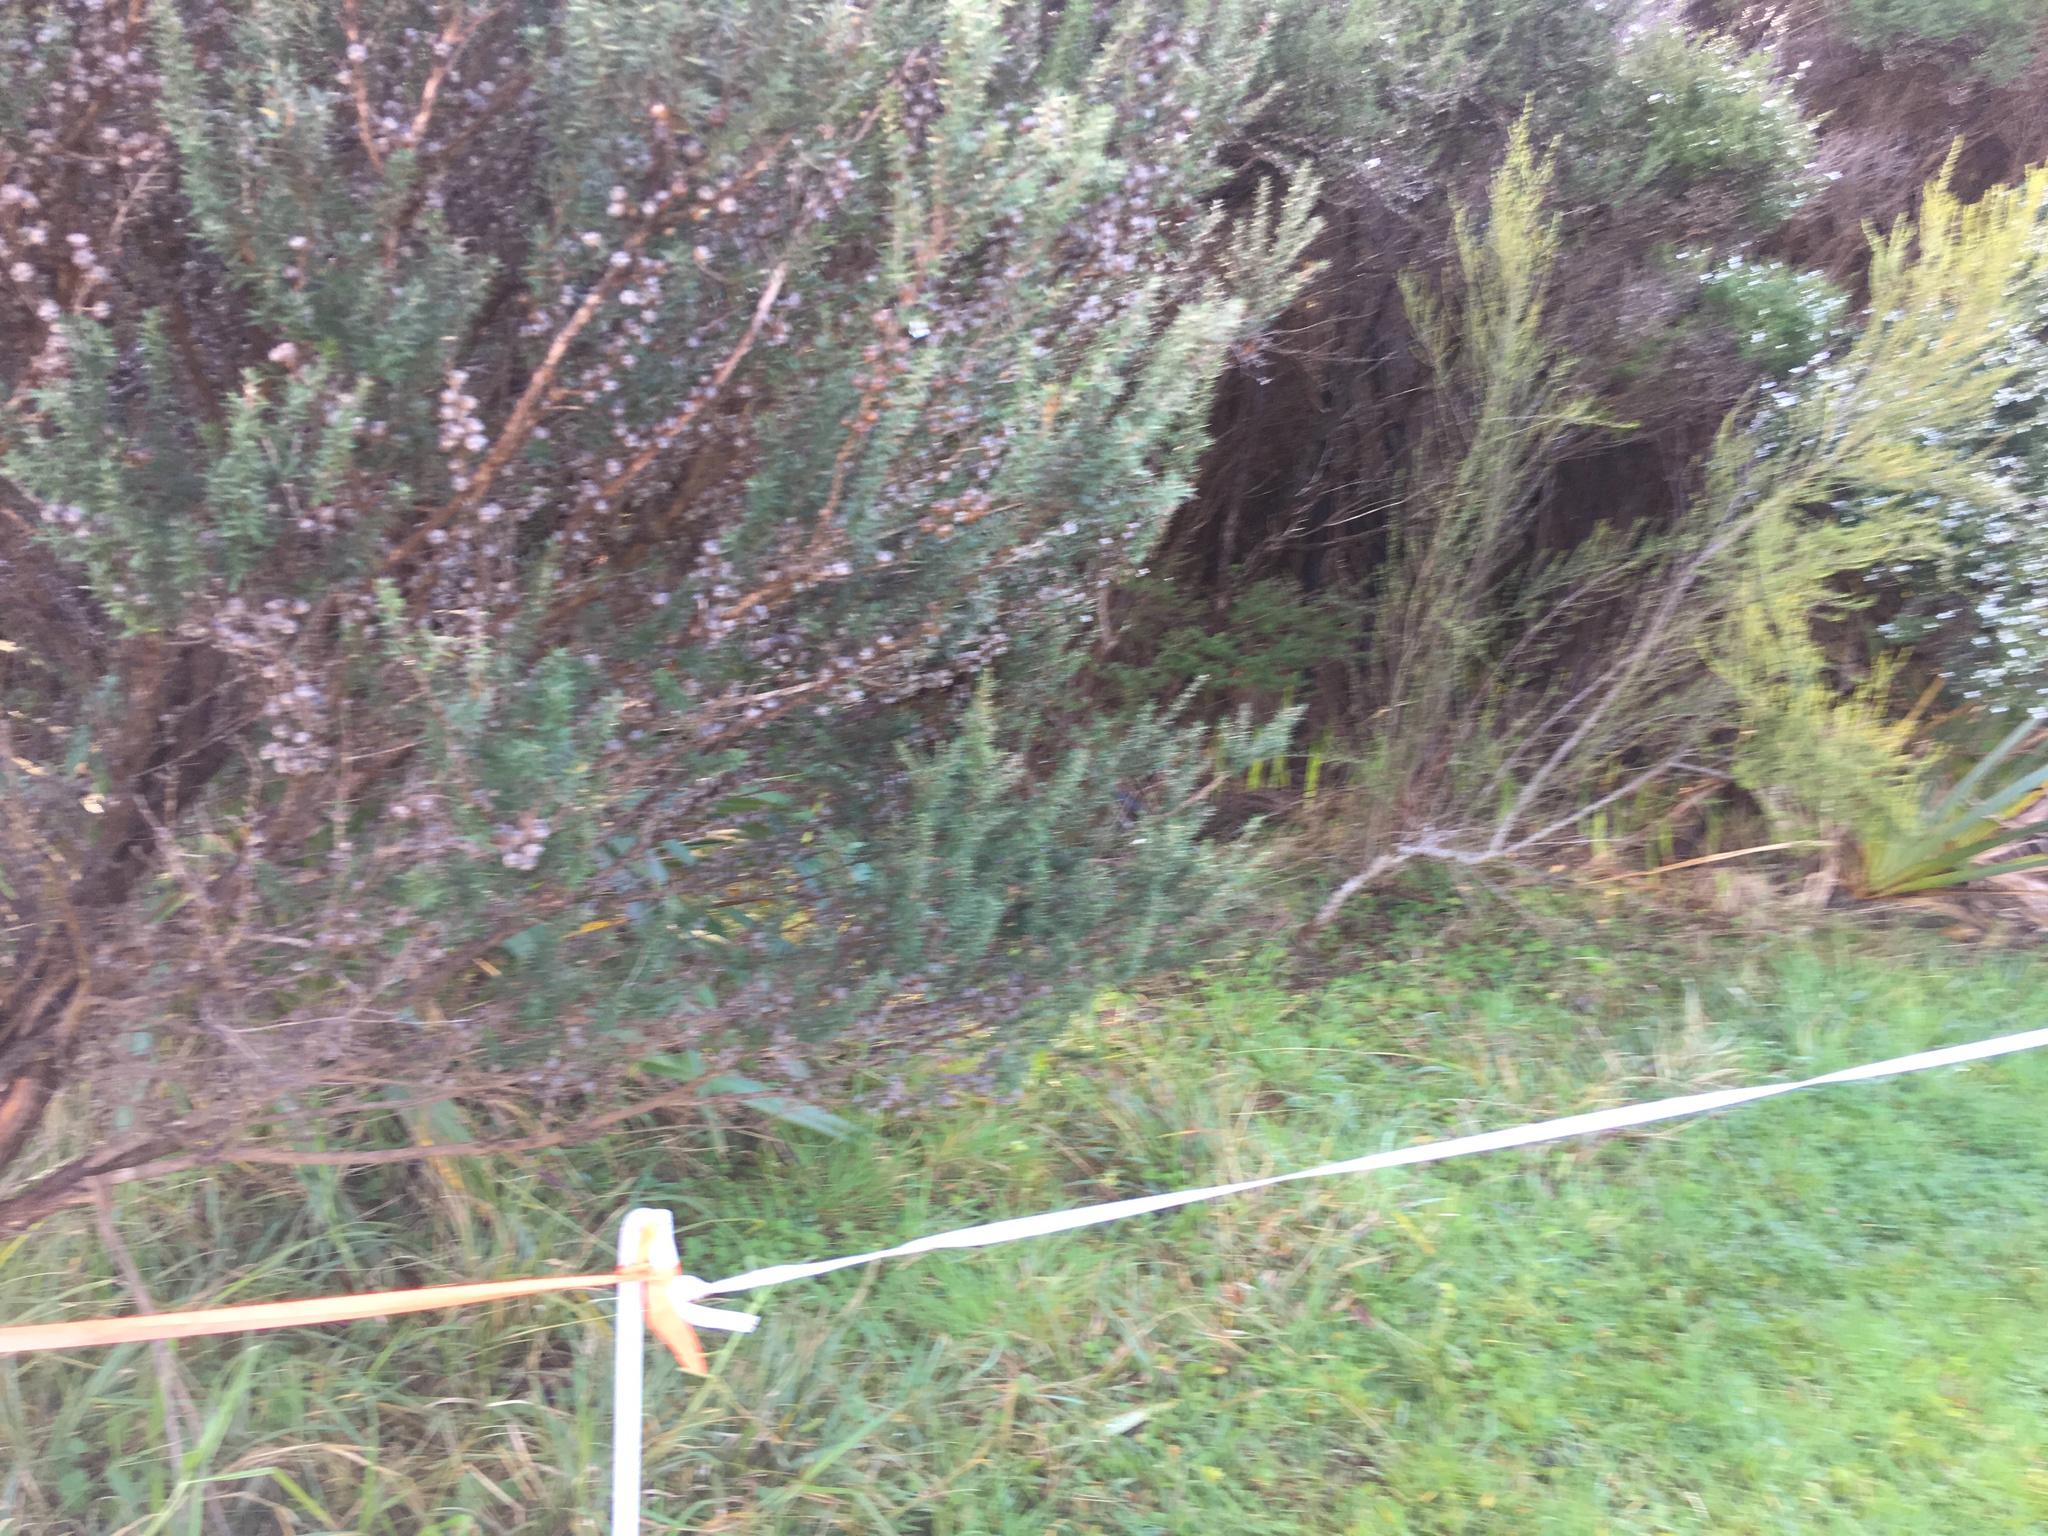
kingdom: Plantae
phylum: Tracheophyta
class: Magnoliopsida
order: Asterales
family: Asteraceae
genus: Olearia
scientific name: Olearia solandri
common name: Coastal daisybush
